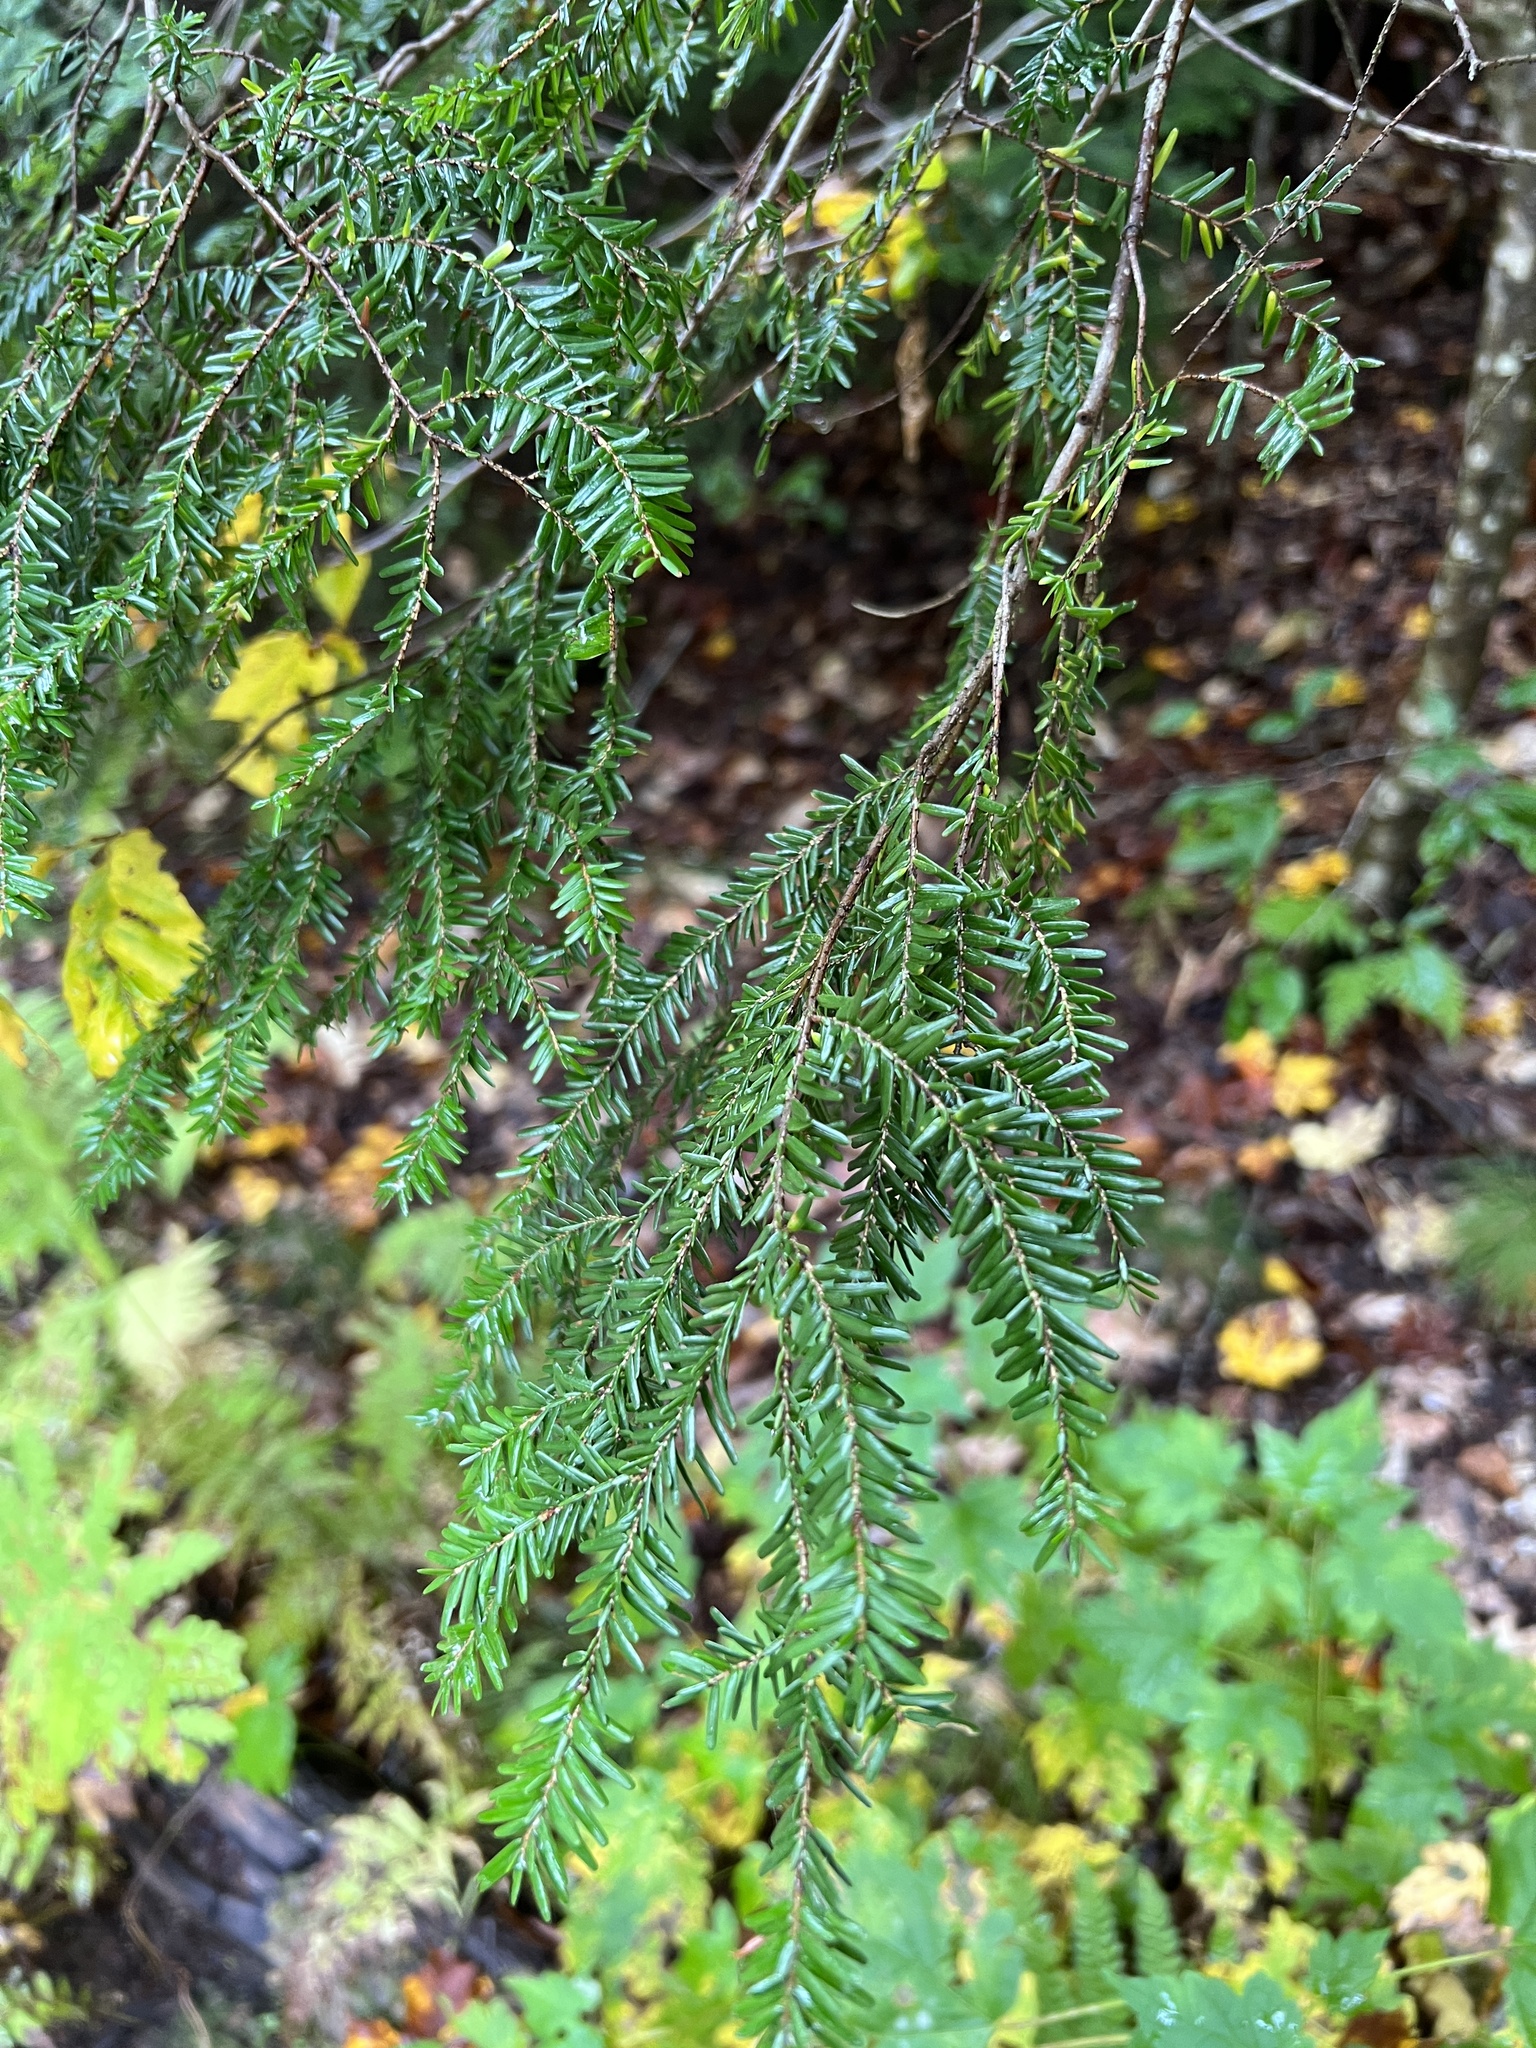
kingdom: Plantae
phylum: Tracheophyta
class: Pinopsida
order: Pinales
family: Pinaceae
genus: Tsuga
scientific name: Tsuga canadensis
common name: Eastern hemlock
